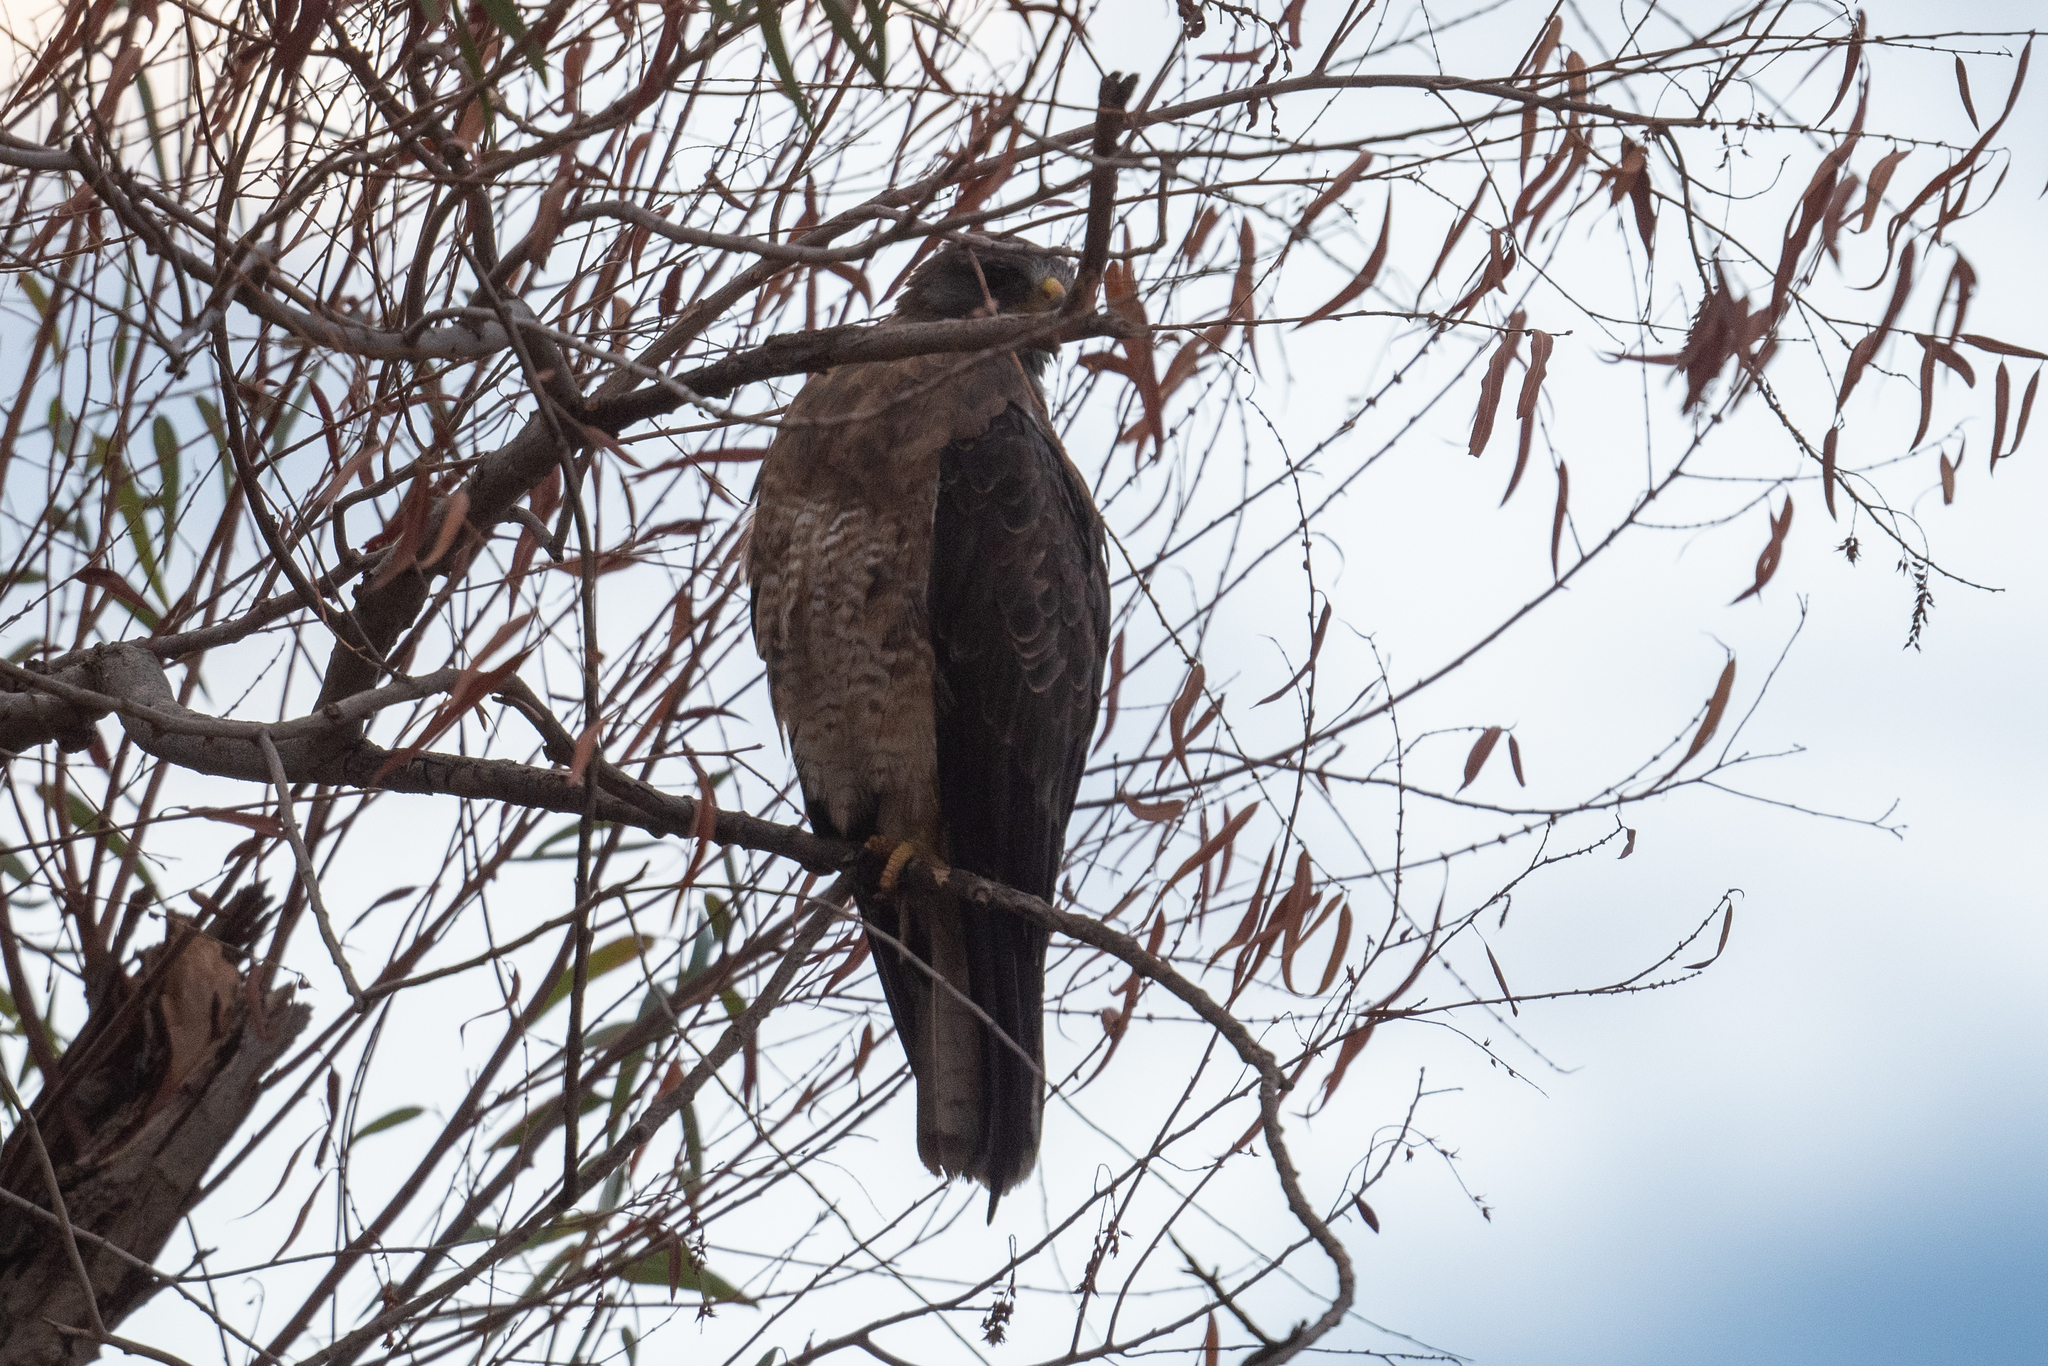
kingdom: Animalia
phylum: Chordata
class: Aves
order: Accipitriformes
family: Accipitridae
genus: Buteo
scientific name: Buteo swainsoni
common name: Swainson's hawk
